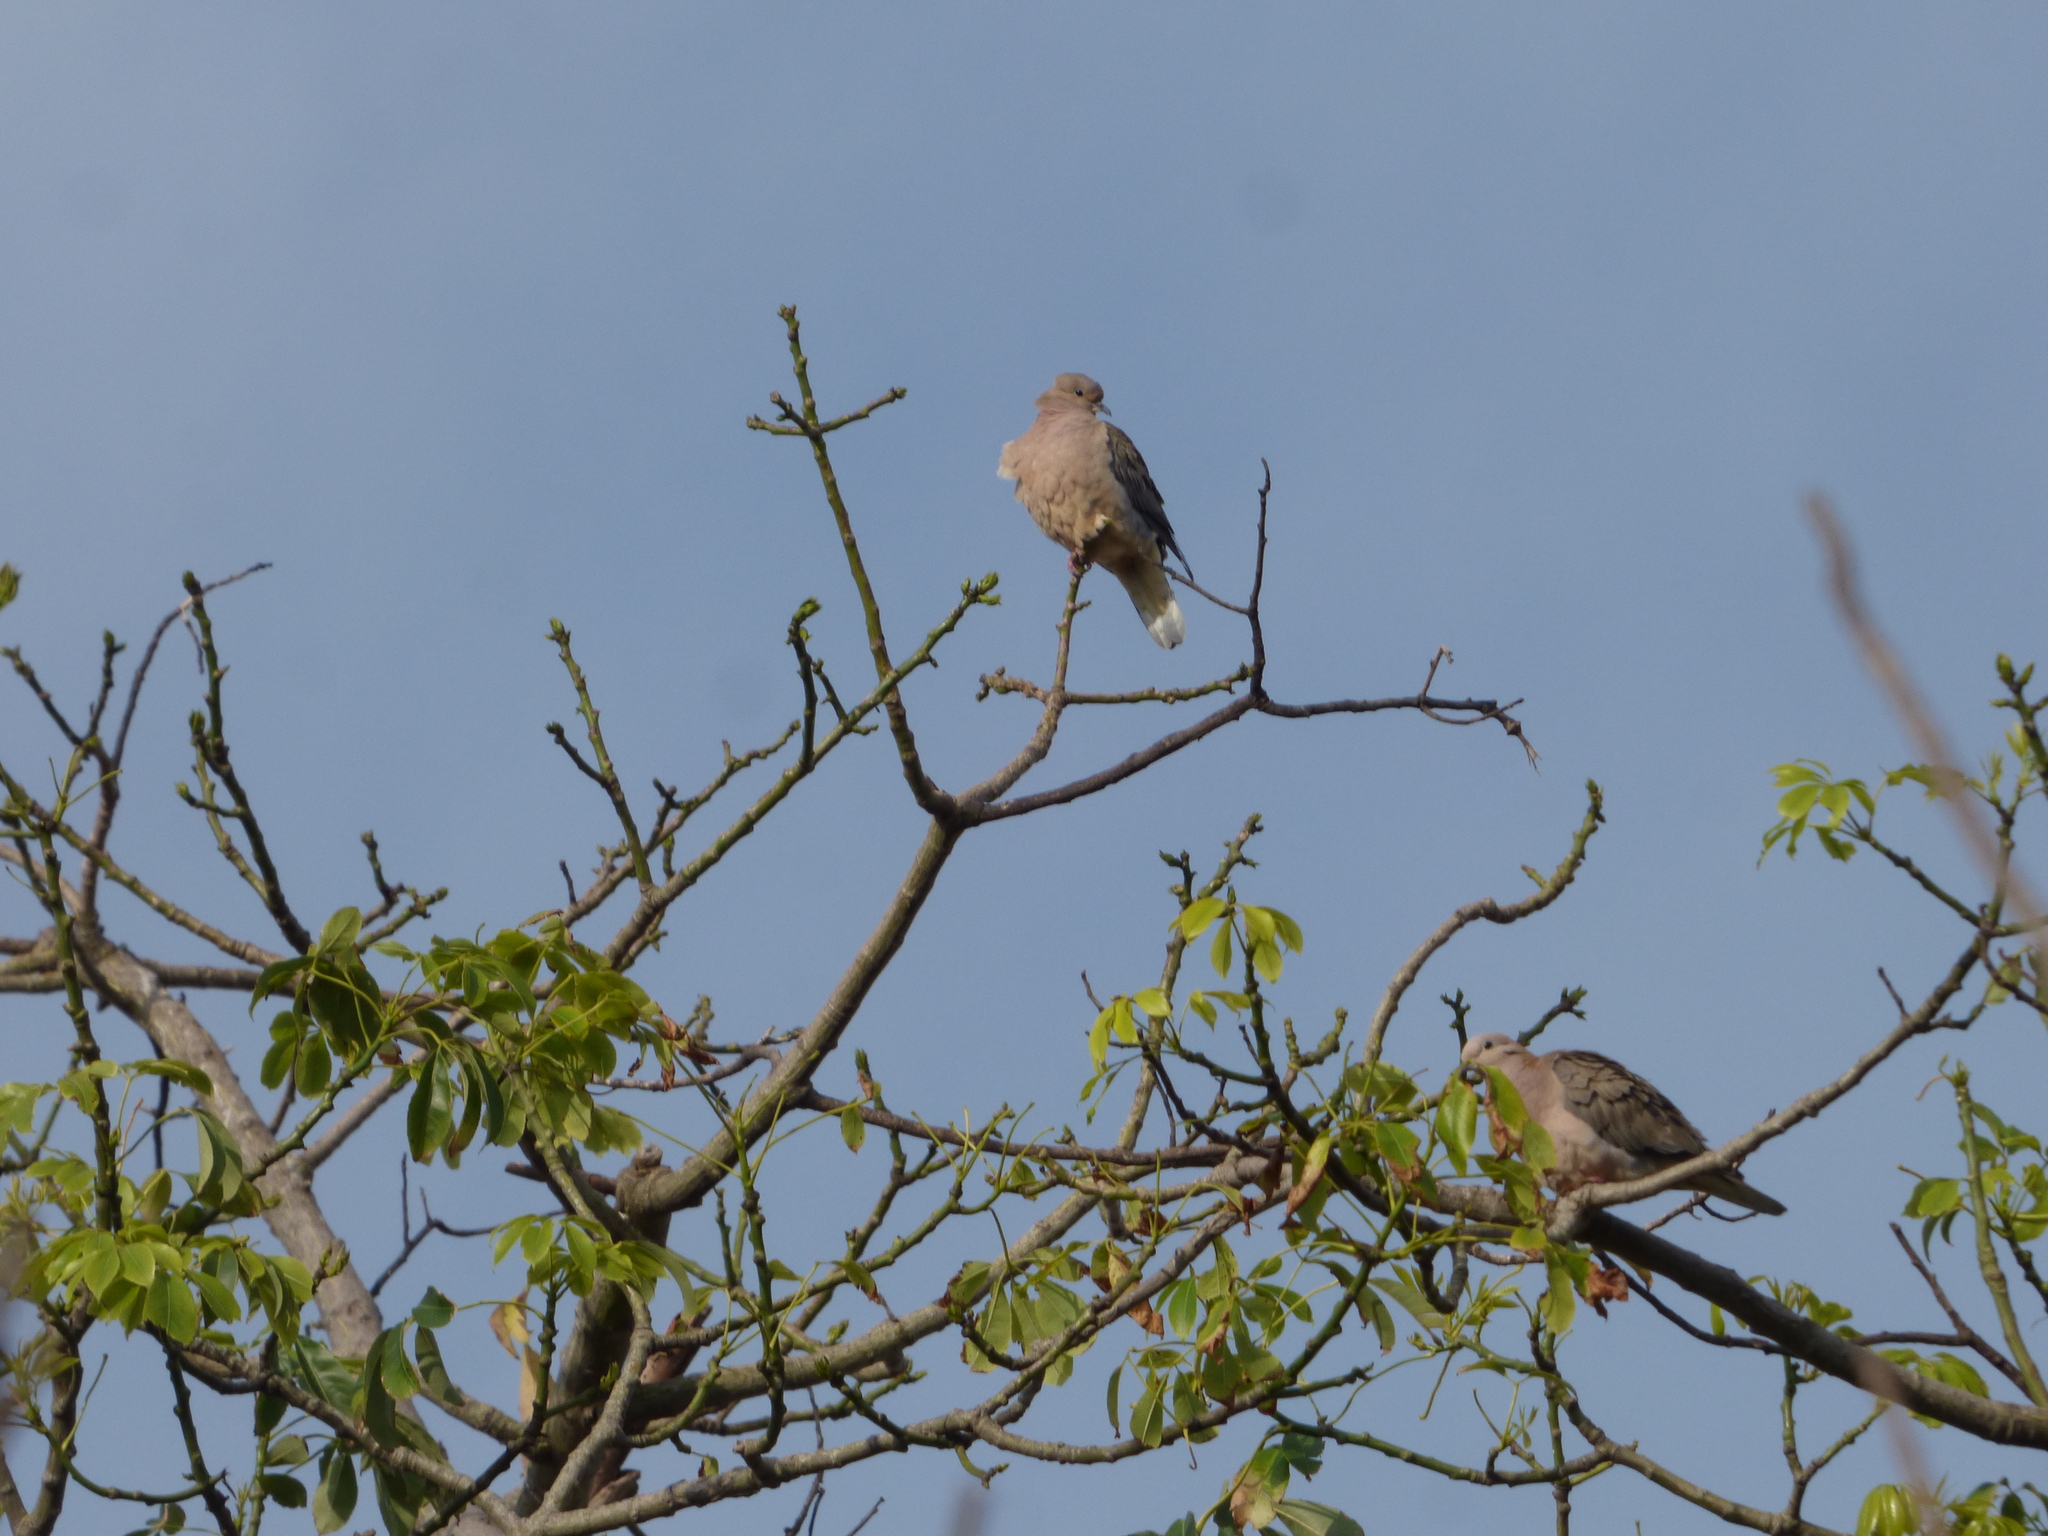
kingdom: Animalia
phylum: Chordata
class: Aves
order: Columbiformes
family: Columbidae
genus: Zenaida
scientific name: Zenaida auriculata
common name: Eared dove
